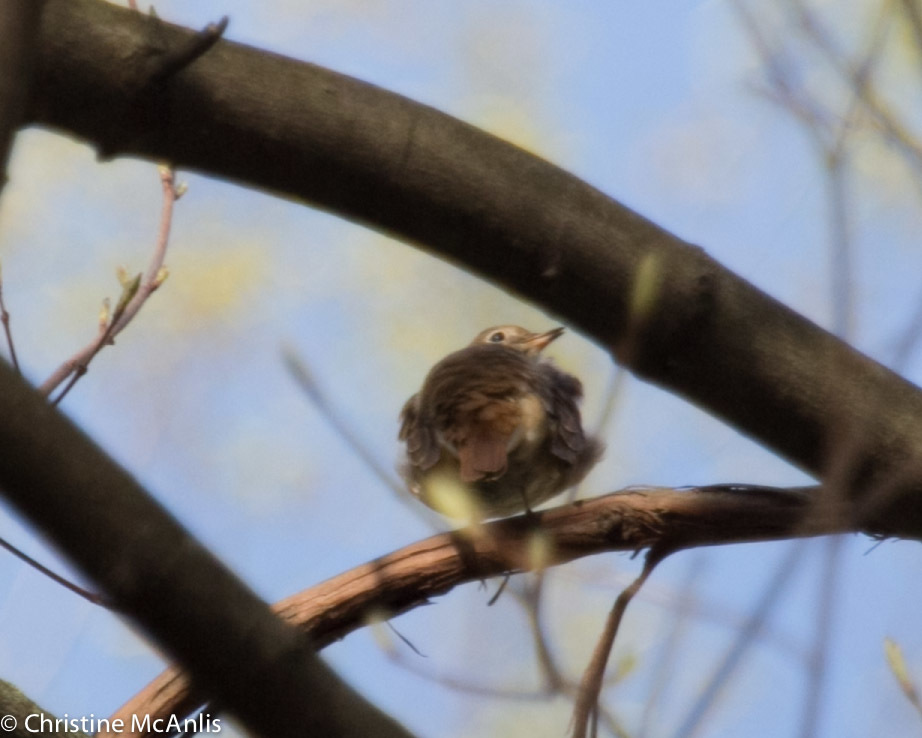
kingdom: Animalia
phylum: Chordata
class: Aves
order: Passeriformes
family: Turdidae
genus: Catharus
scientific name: Catharus guttatus
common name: Hermit thrush
